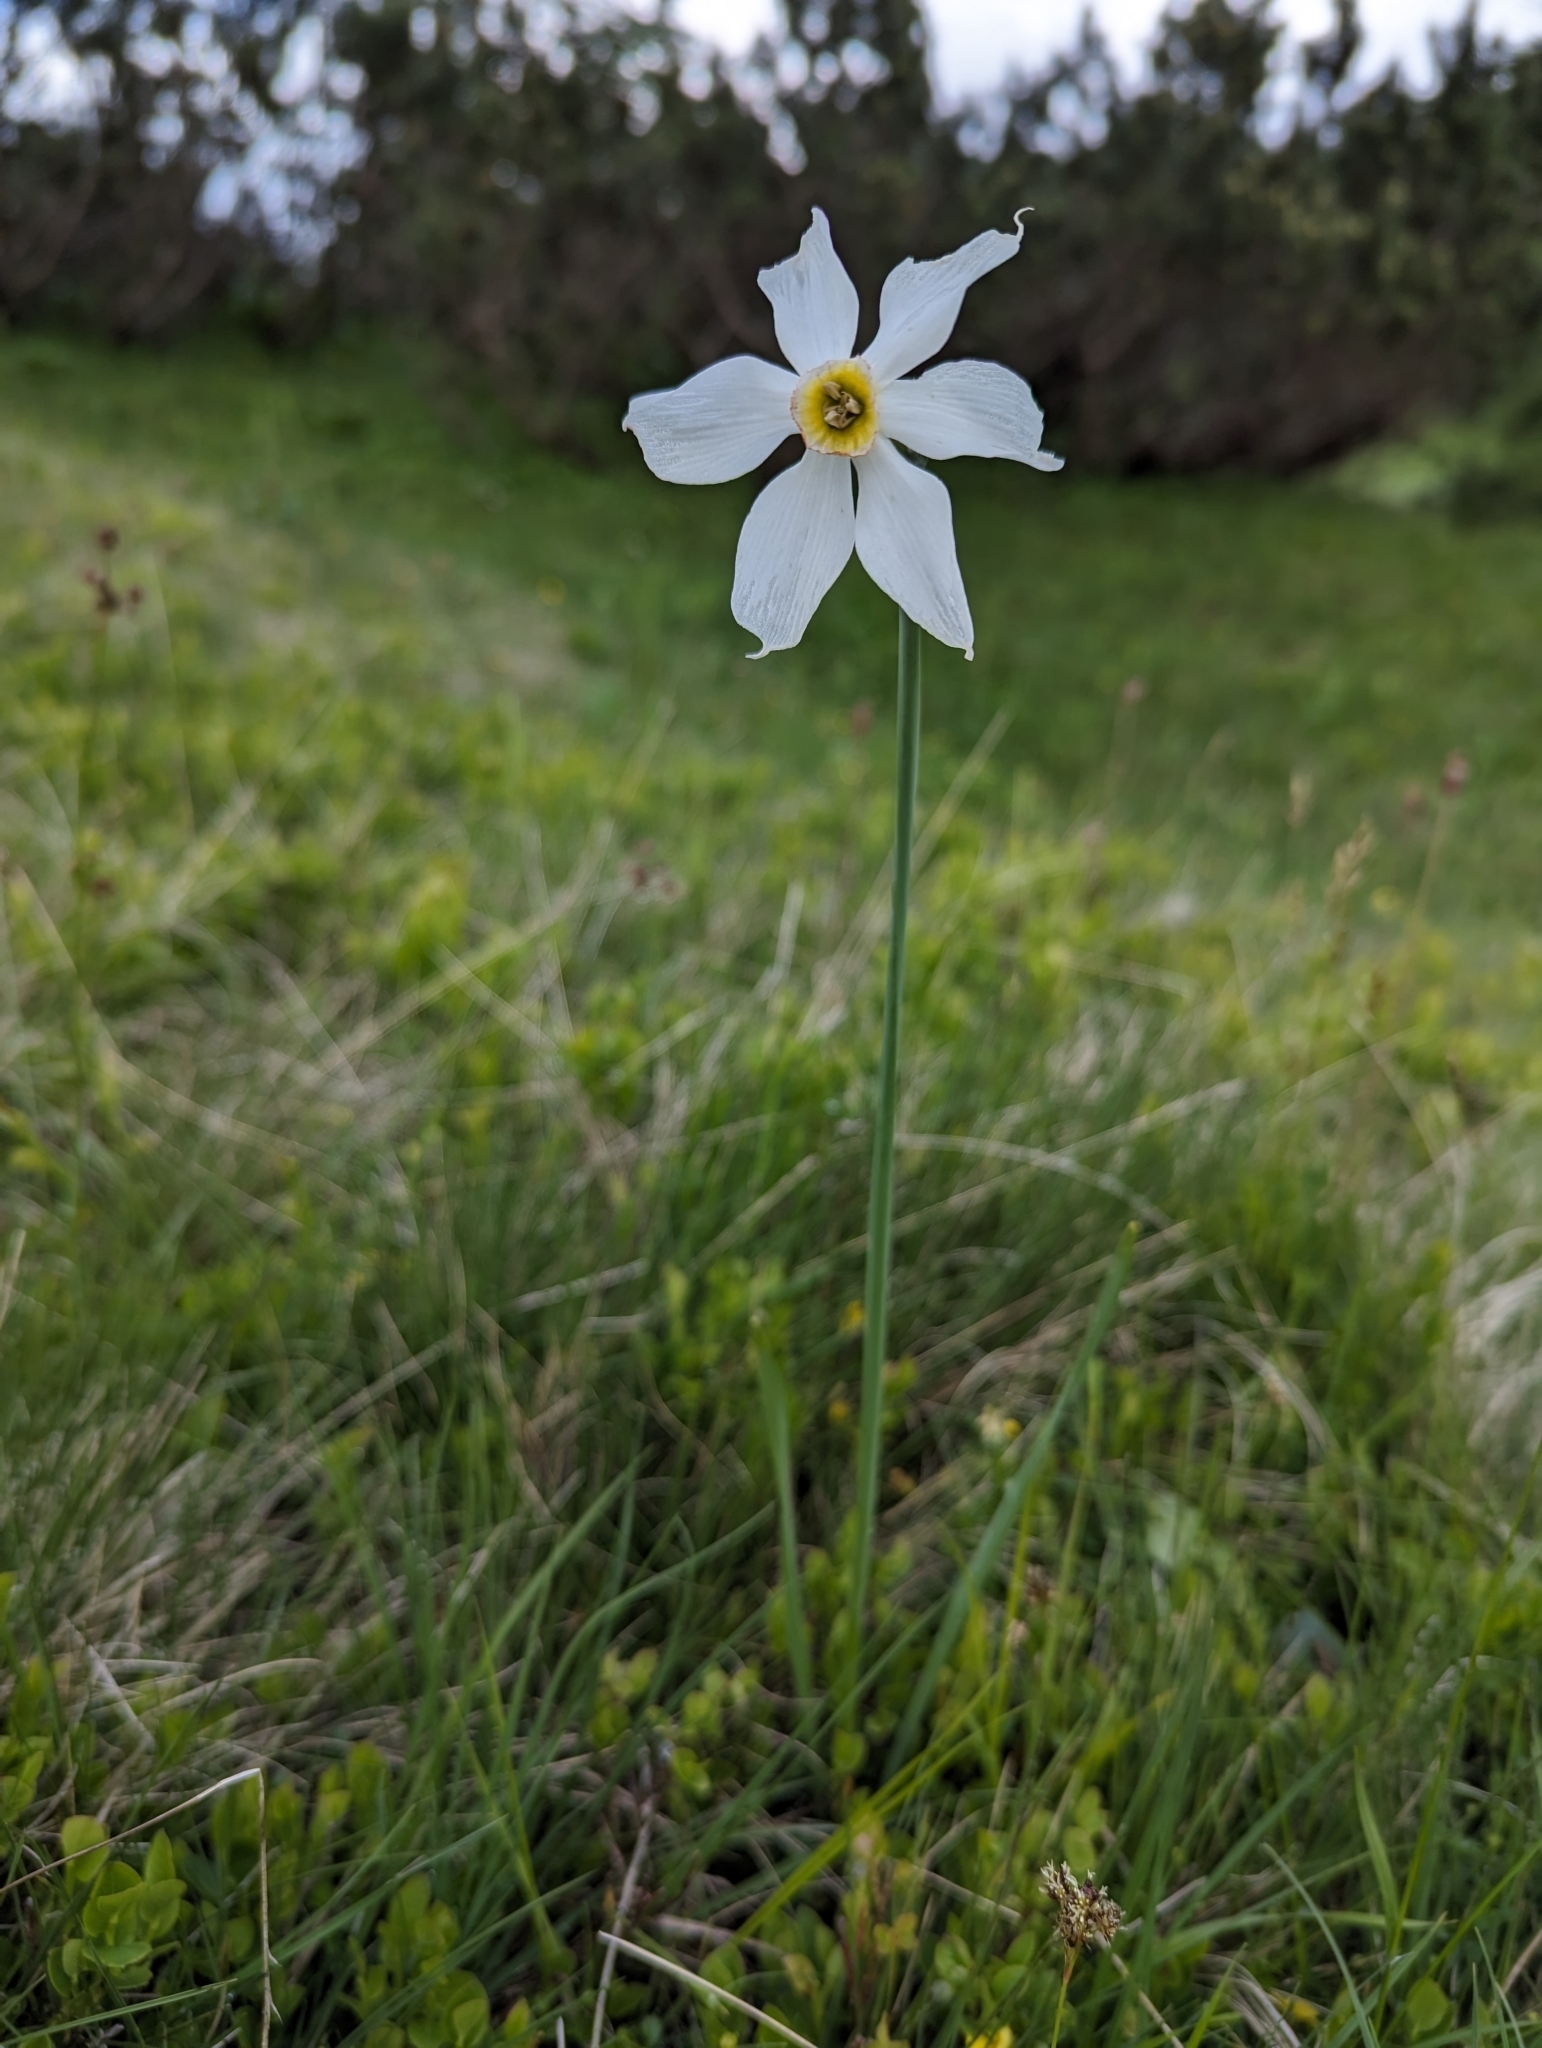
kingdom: Plantae
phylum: Tracheophyta
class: Liliopsida
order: Asparagales
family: Amaryllidaceae
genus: Narcissus
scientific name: Narcissus poeticus
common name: Pheasant's-eye daffodil
